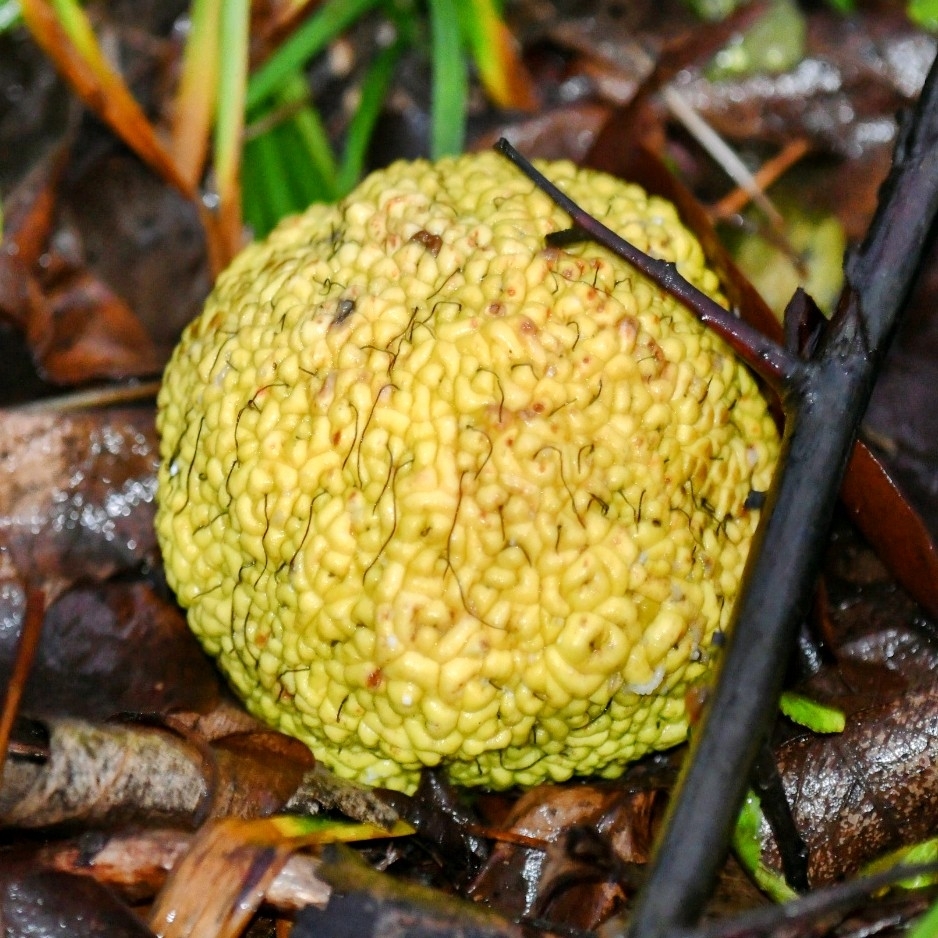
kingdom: Plantae
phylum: Tracheophyta
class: Magnoliopsida
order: Rosales
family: Moraceae
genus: Maclura
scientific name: Maclura pomifera
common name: Osage-orange
